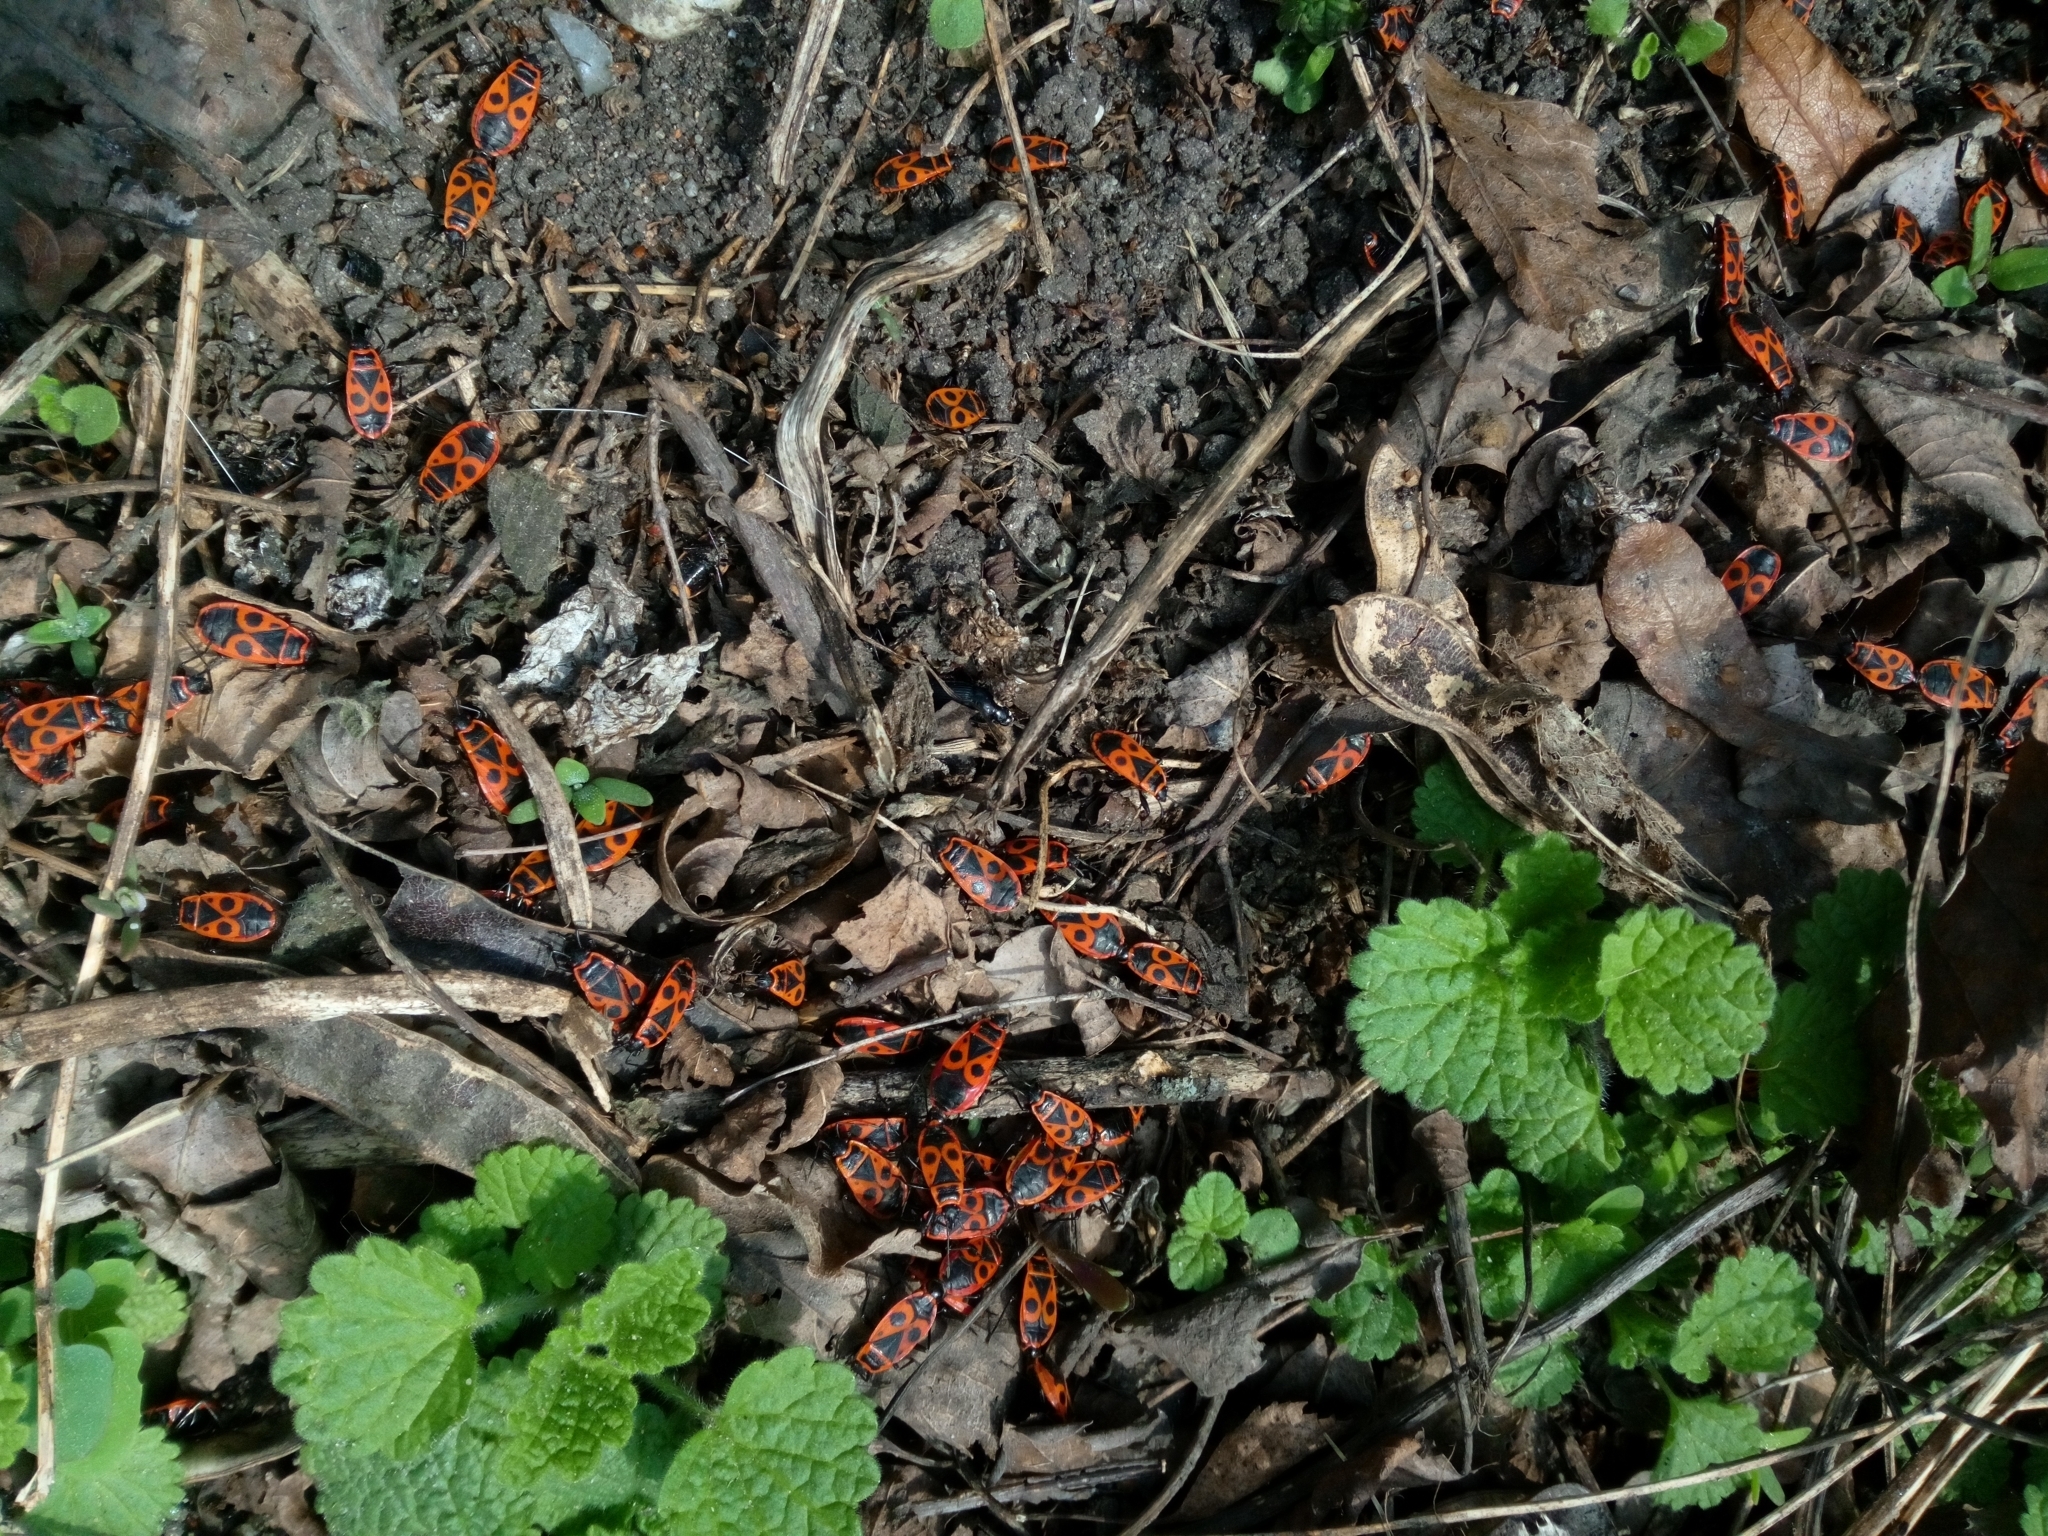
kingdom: Animalia
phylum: Arthropoda
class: Insecta
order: Hemiptera
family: Pyrrhocoridae
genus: Pyrrhocoris
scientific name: Pyrrhocoris apterus
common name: Firebug
